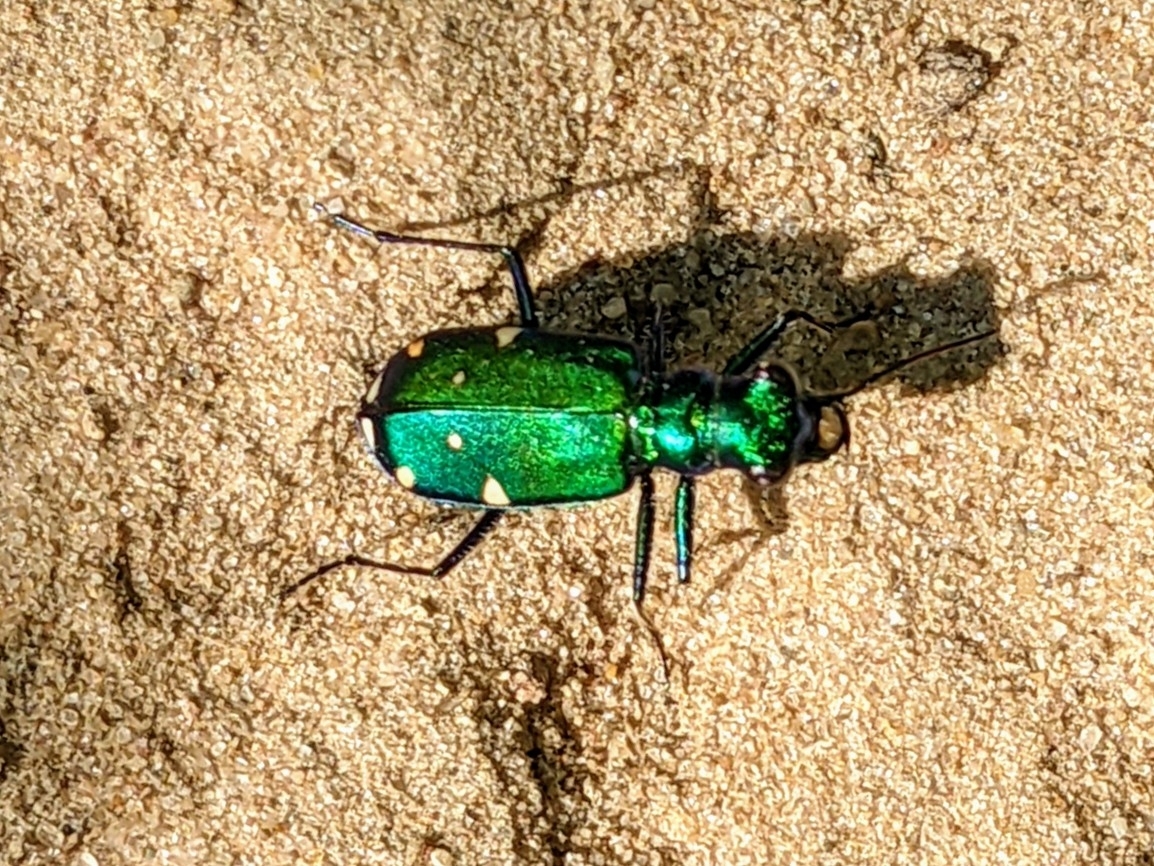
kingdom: Animalia
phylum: Arthropoda
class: Insecta
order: Coleoptera
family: Carabidae
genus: Cicindela
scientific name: Cicindela sexguttata
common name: Six-spotted tiger beetle
